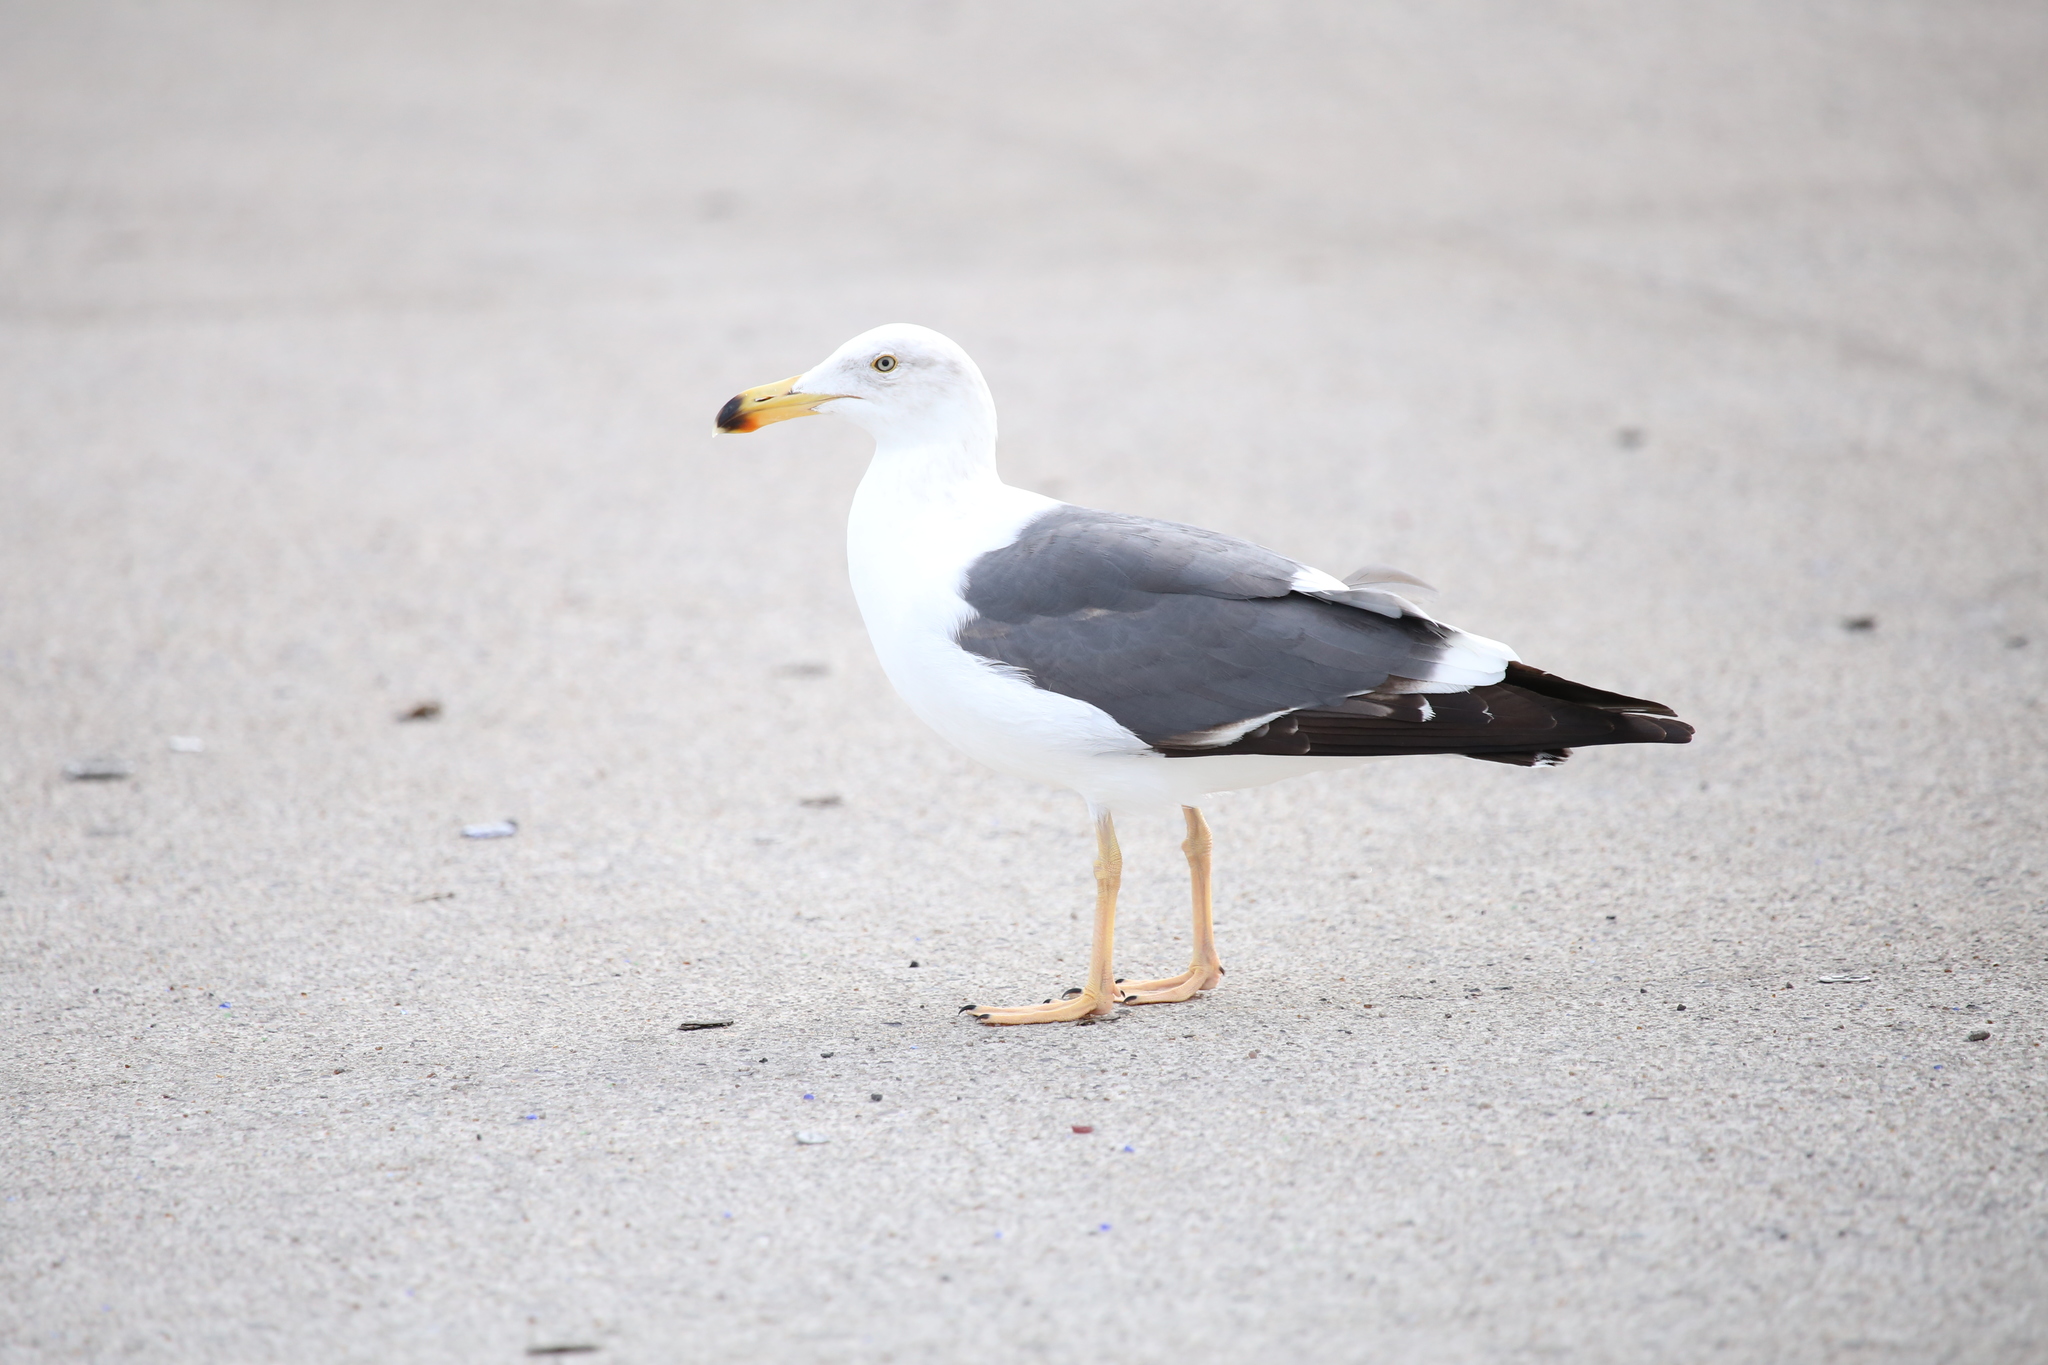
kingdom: Animalia
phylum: Chordata
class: Aves
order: Charadriiformes
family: Laridae
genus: Larus
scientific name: Larus livens
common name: Yellow-footed gull
